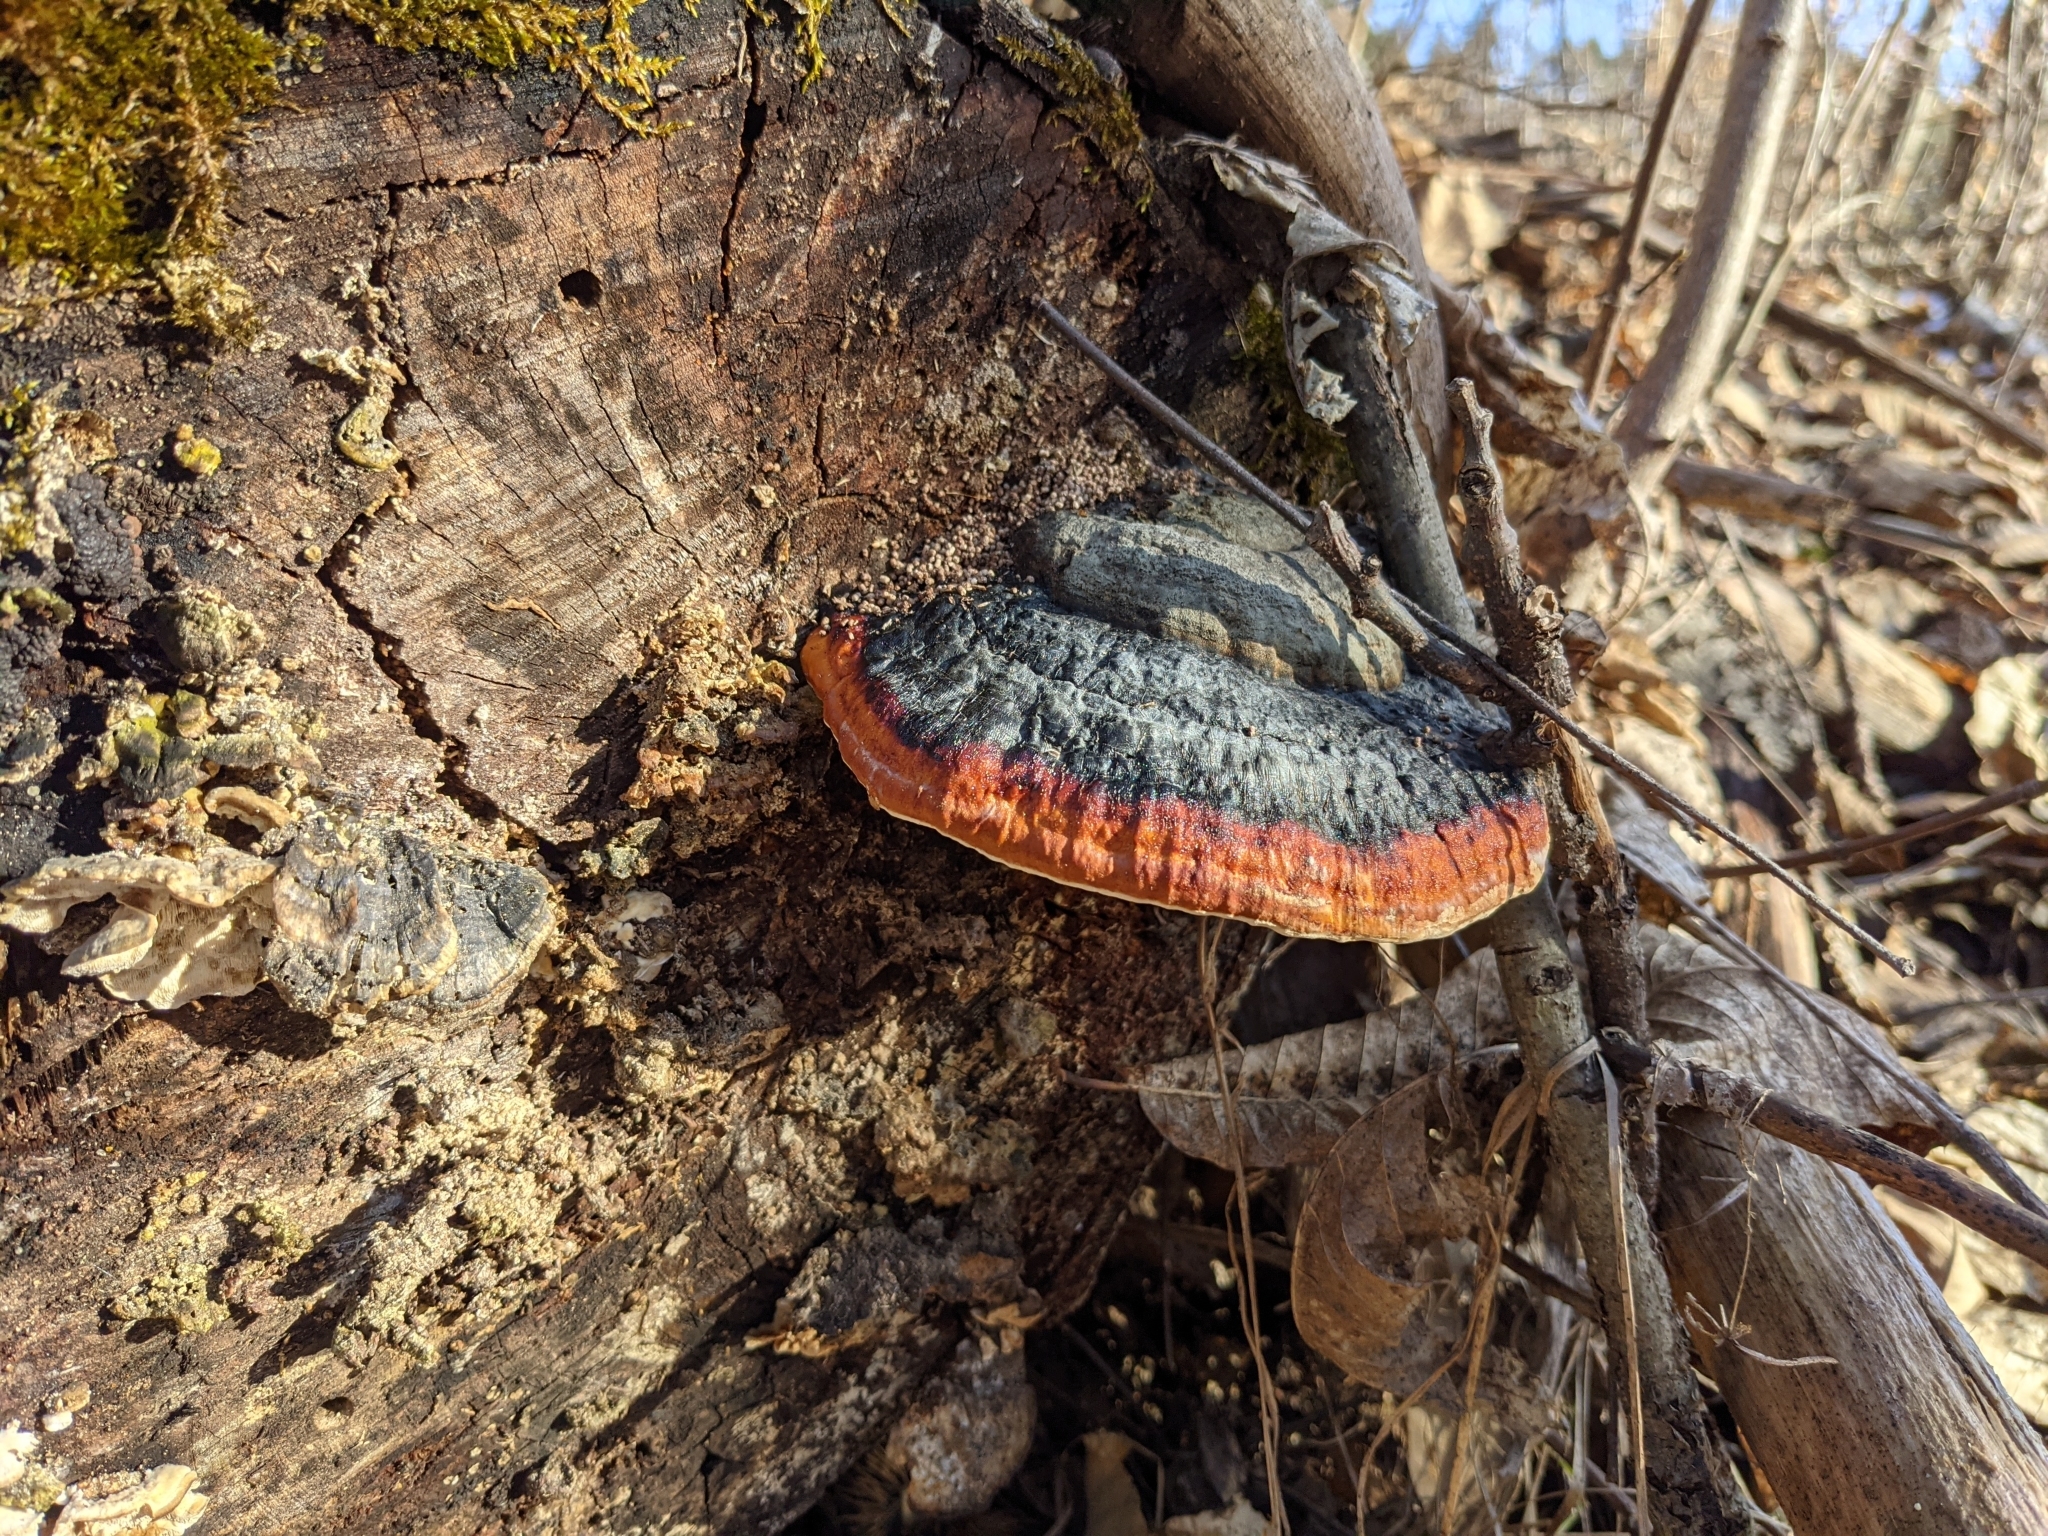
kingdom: Fungi
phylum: Basidiomycota
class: Agaricomycetes
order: Polyporales
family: Fomitopsidaceae
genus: Fomitopsis
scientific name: Fomitopsis pinicola
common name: Red-belted bracket
